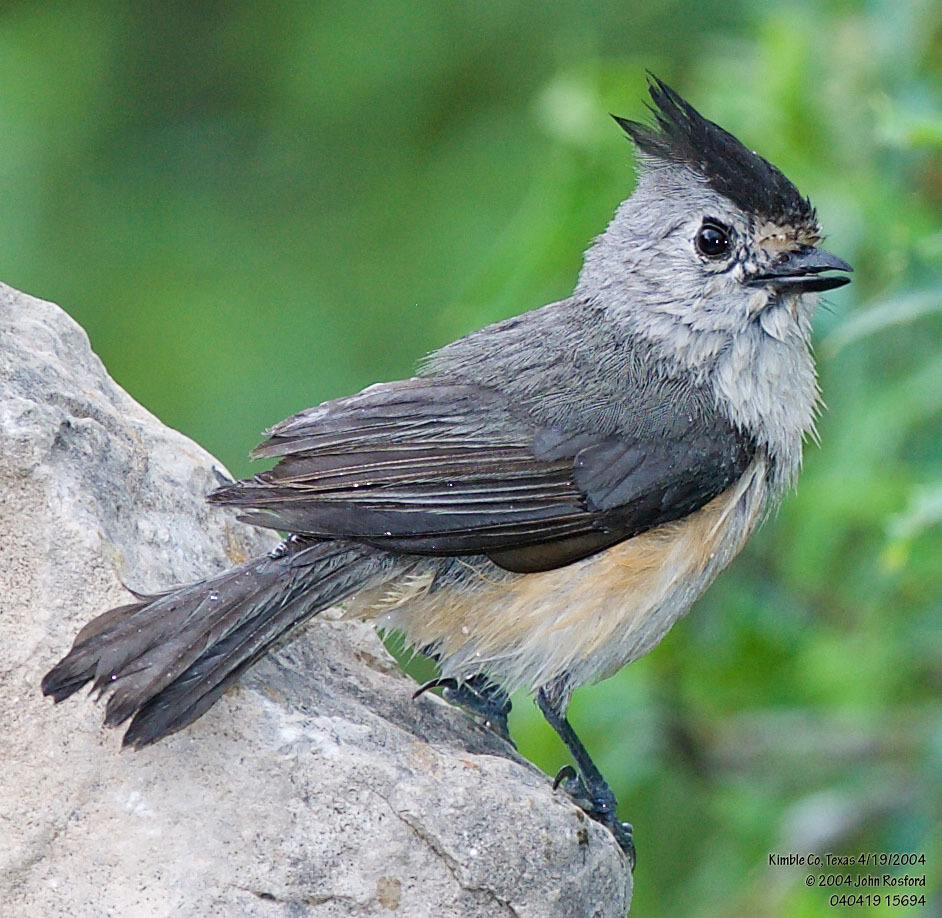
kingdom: Animalia
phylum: Chordata
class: Aves
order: Passeriformes
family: Paridae
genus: Baeolophus
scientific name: Baeolophus atricristatus
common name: Black-crested titmouse
